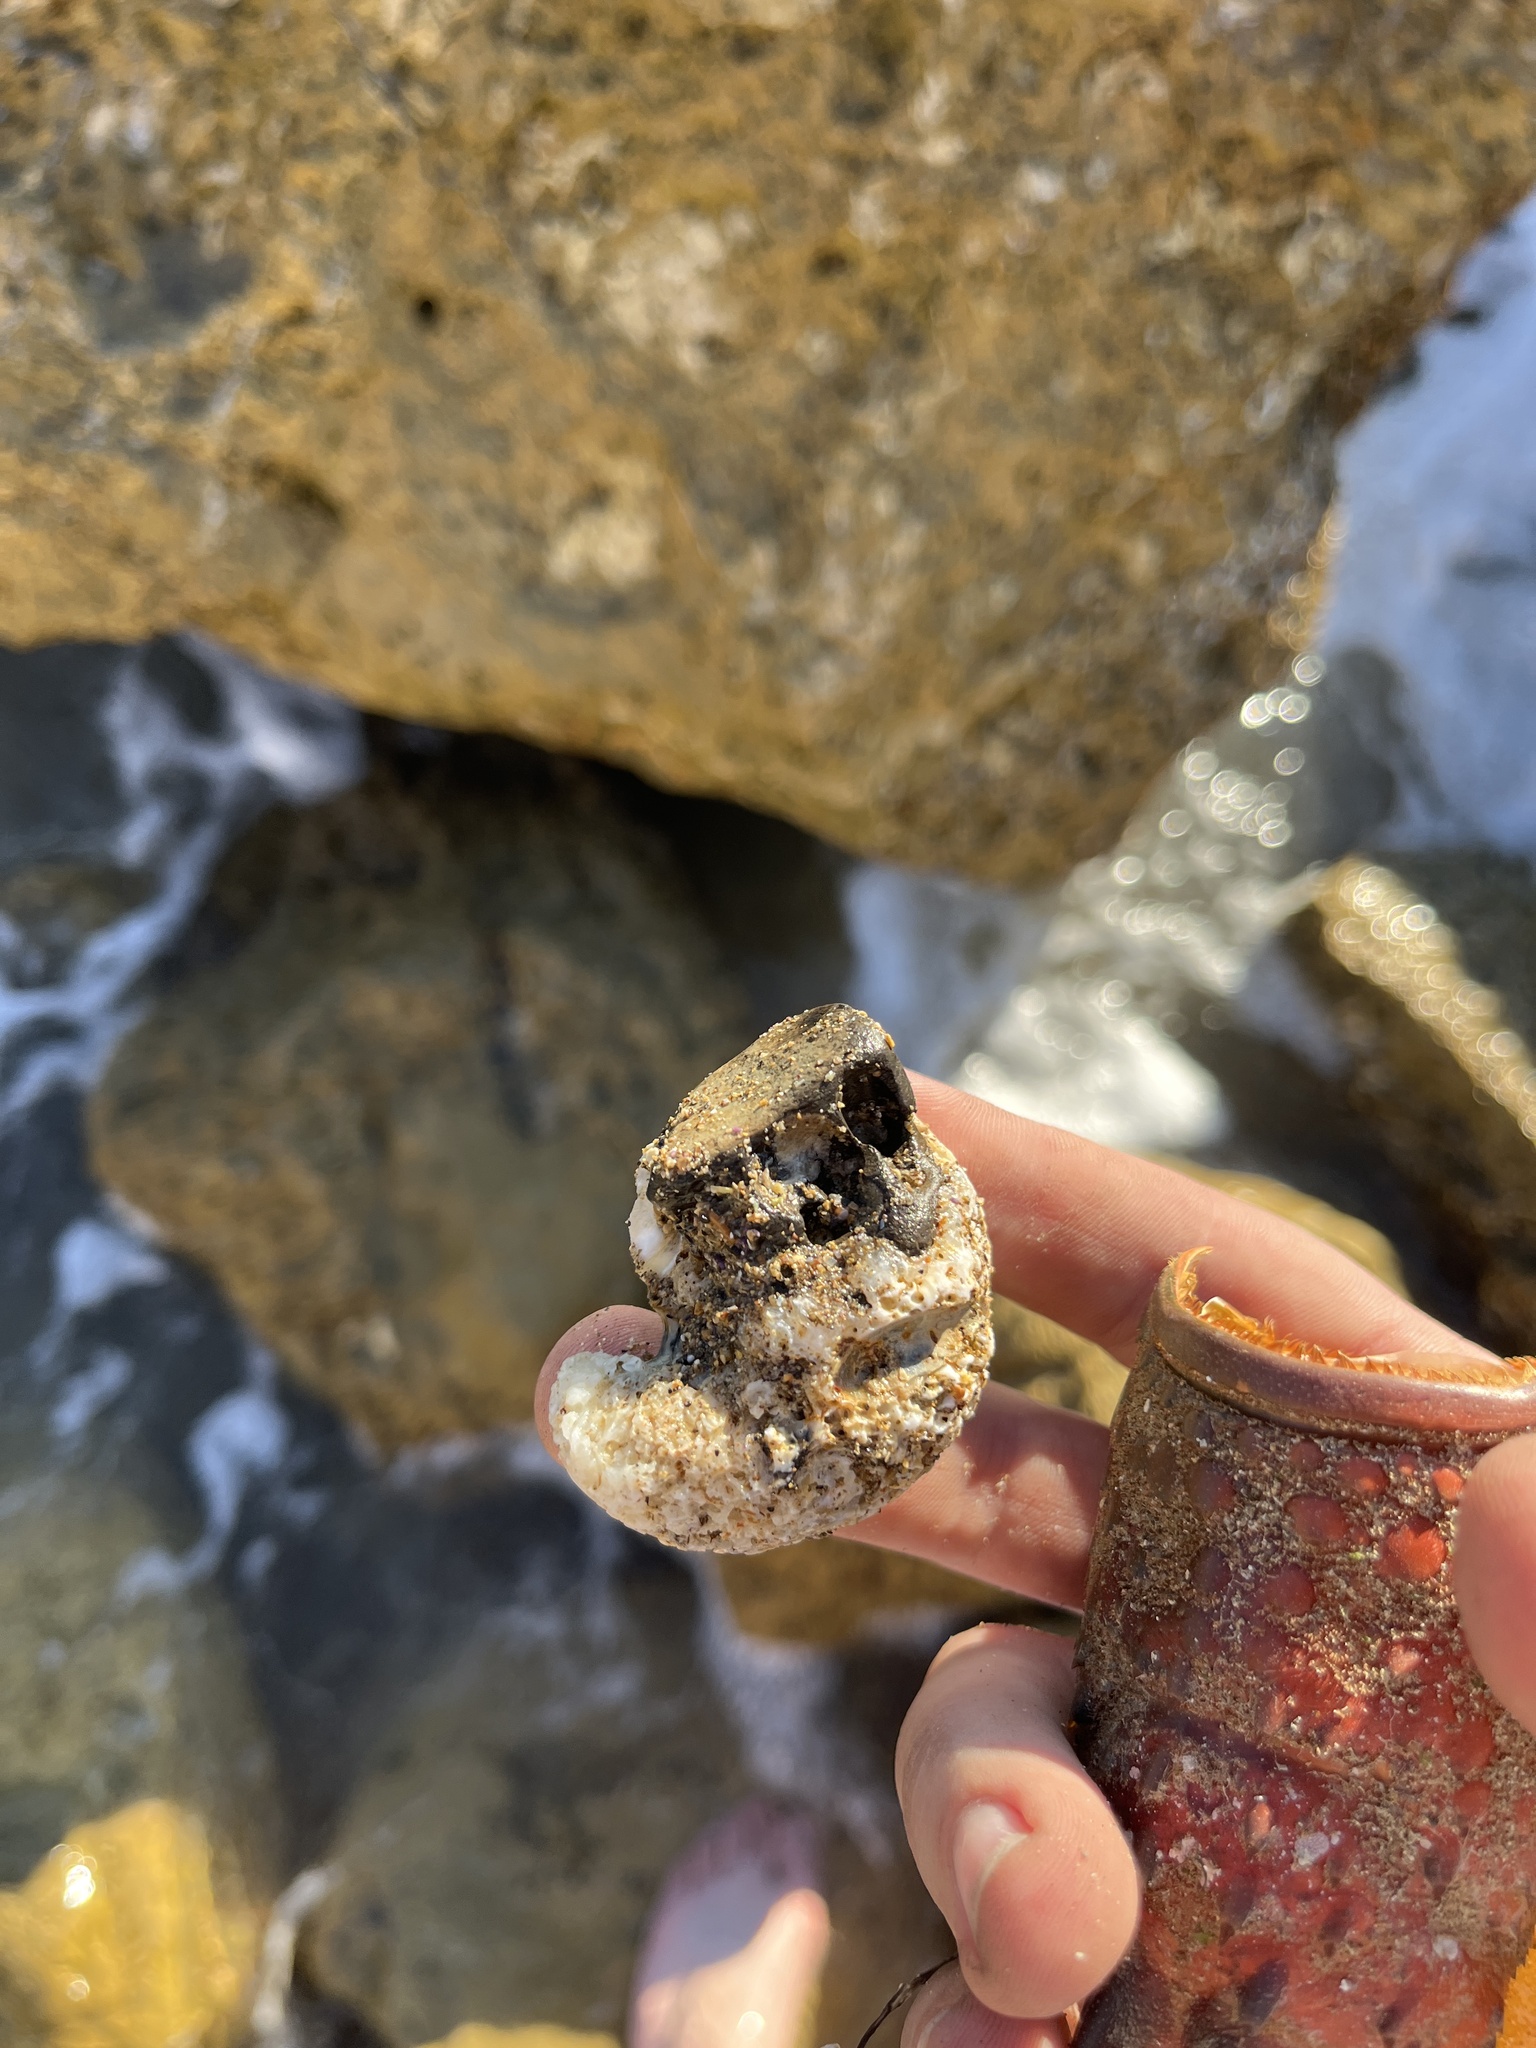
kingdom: Animalia
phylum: Mollusca
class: Gastropoda
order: Littorinimorpha
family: Vermetidae
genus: Thylacodes
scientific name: Thylacodes squamigerus
